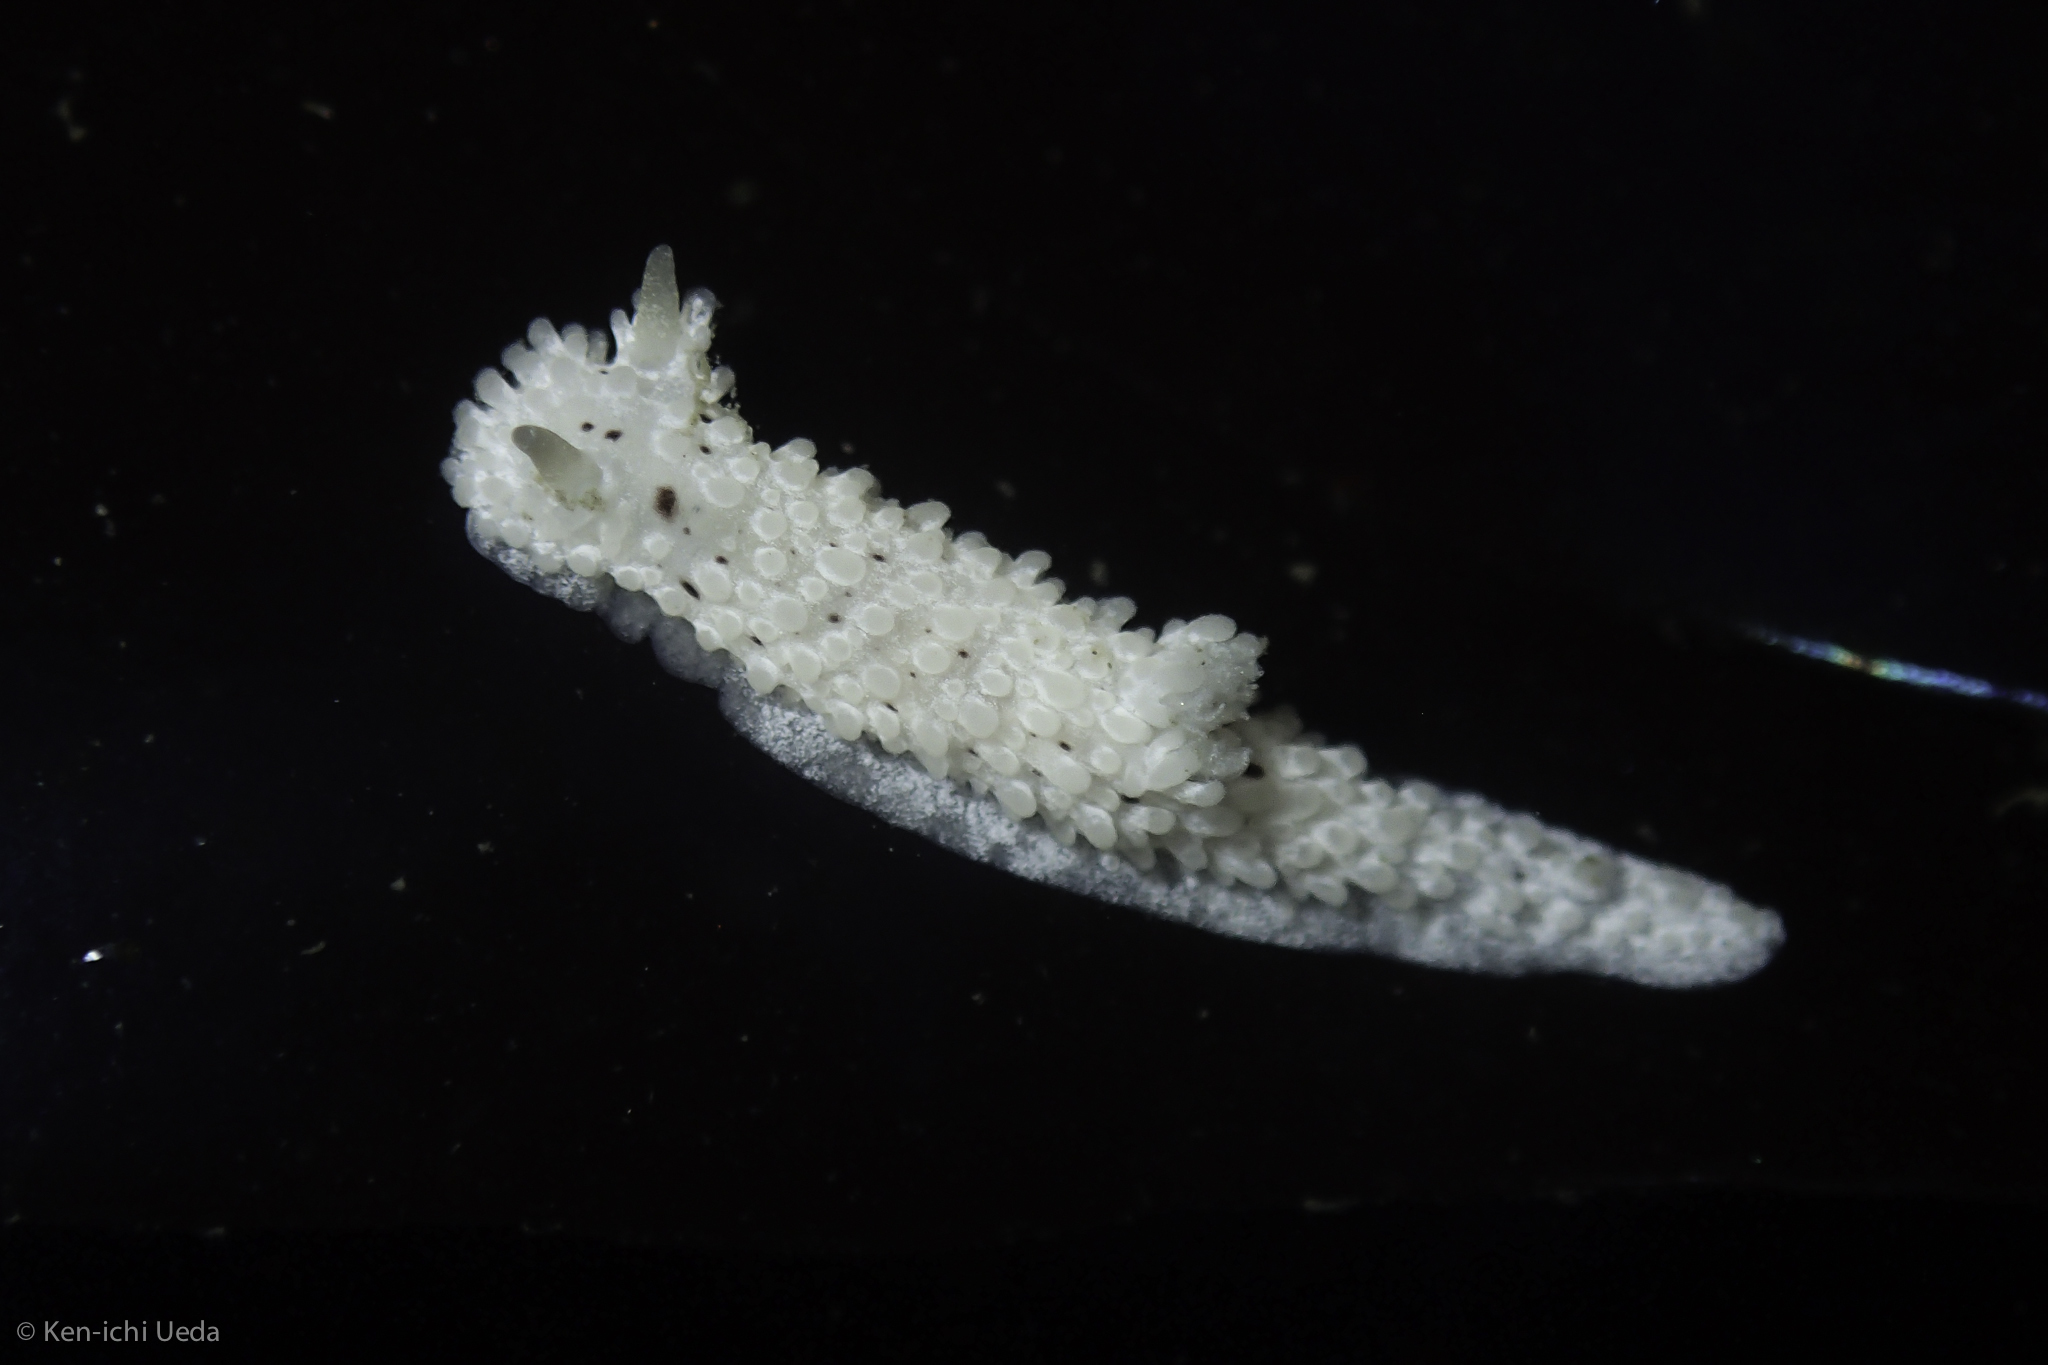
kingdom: Animalia
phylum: Mollusca
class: Gastropoda
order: Nudibranchia
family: Aegiridae
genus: Aegires
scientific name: Aegires albopunctatus
